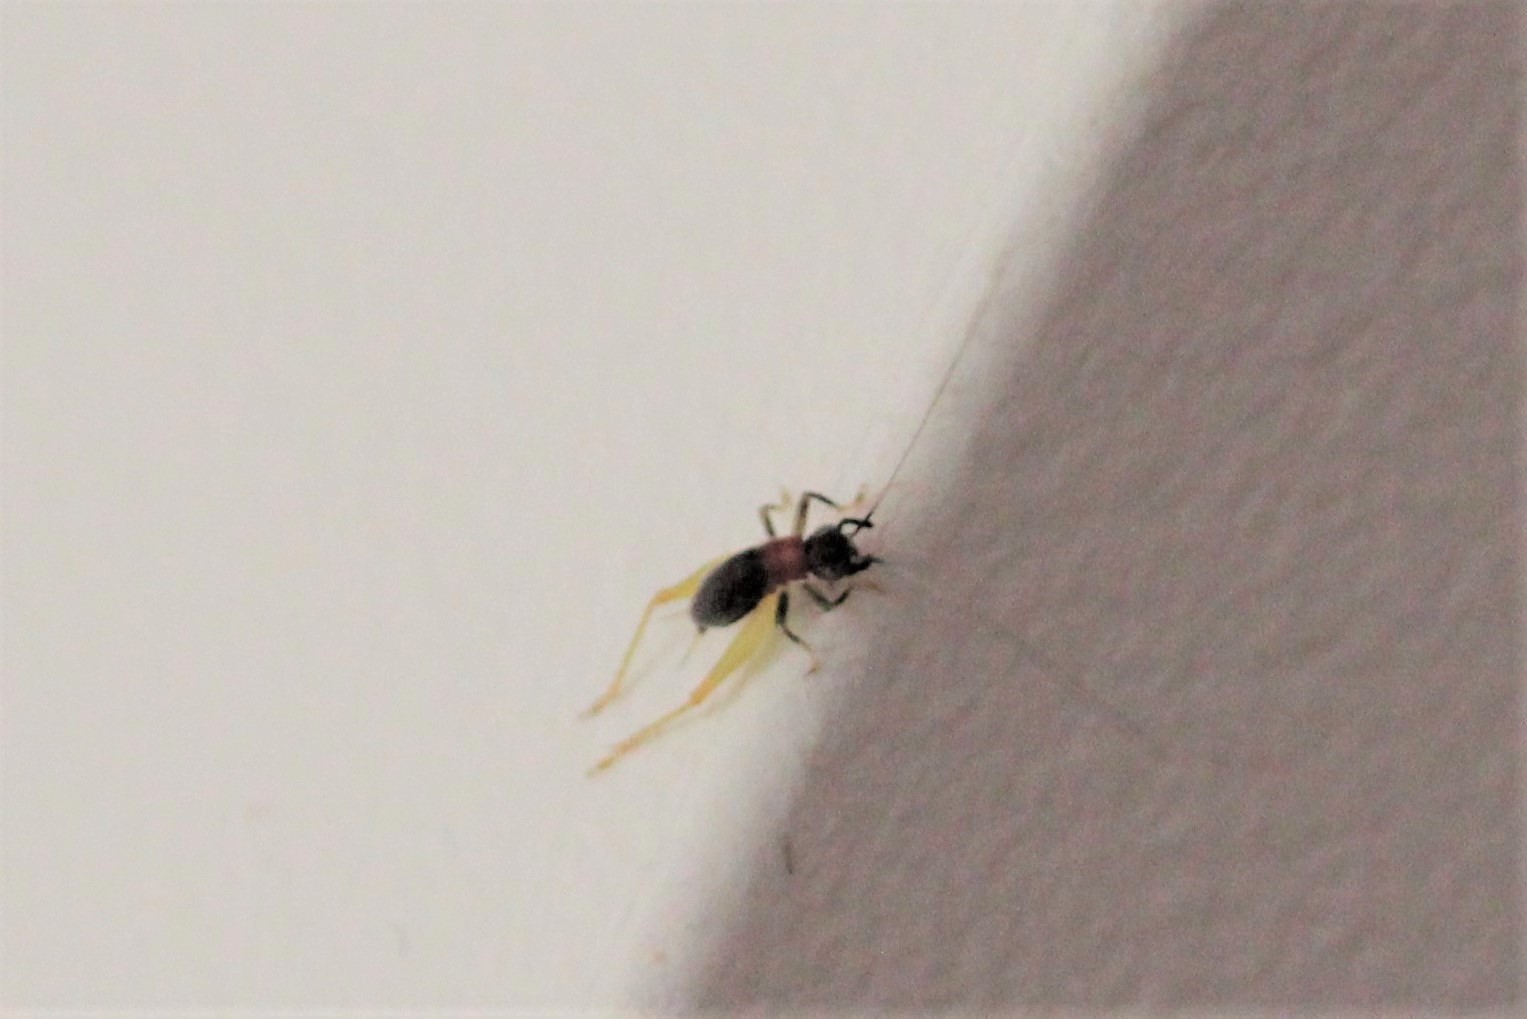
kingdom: Animalia
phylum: Arthropoda
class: Insecta
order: Orthoptera
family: Trigonidiidae
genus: Phyllopalpus
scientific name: Phyllopalpus pulchellus
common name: Handsome trig
